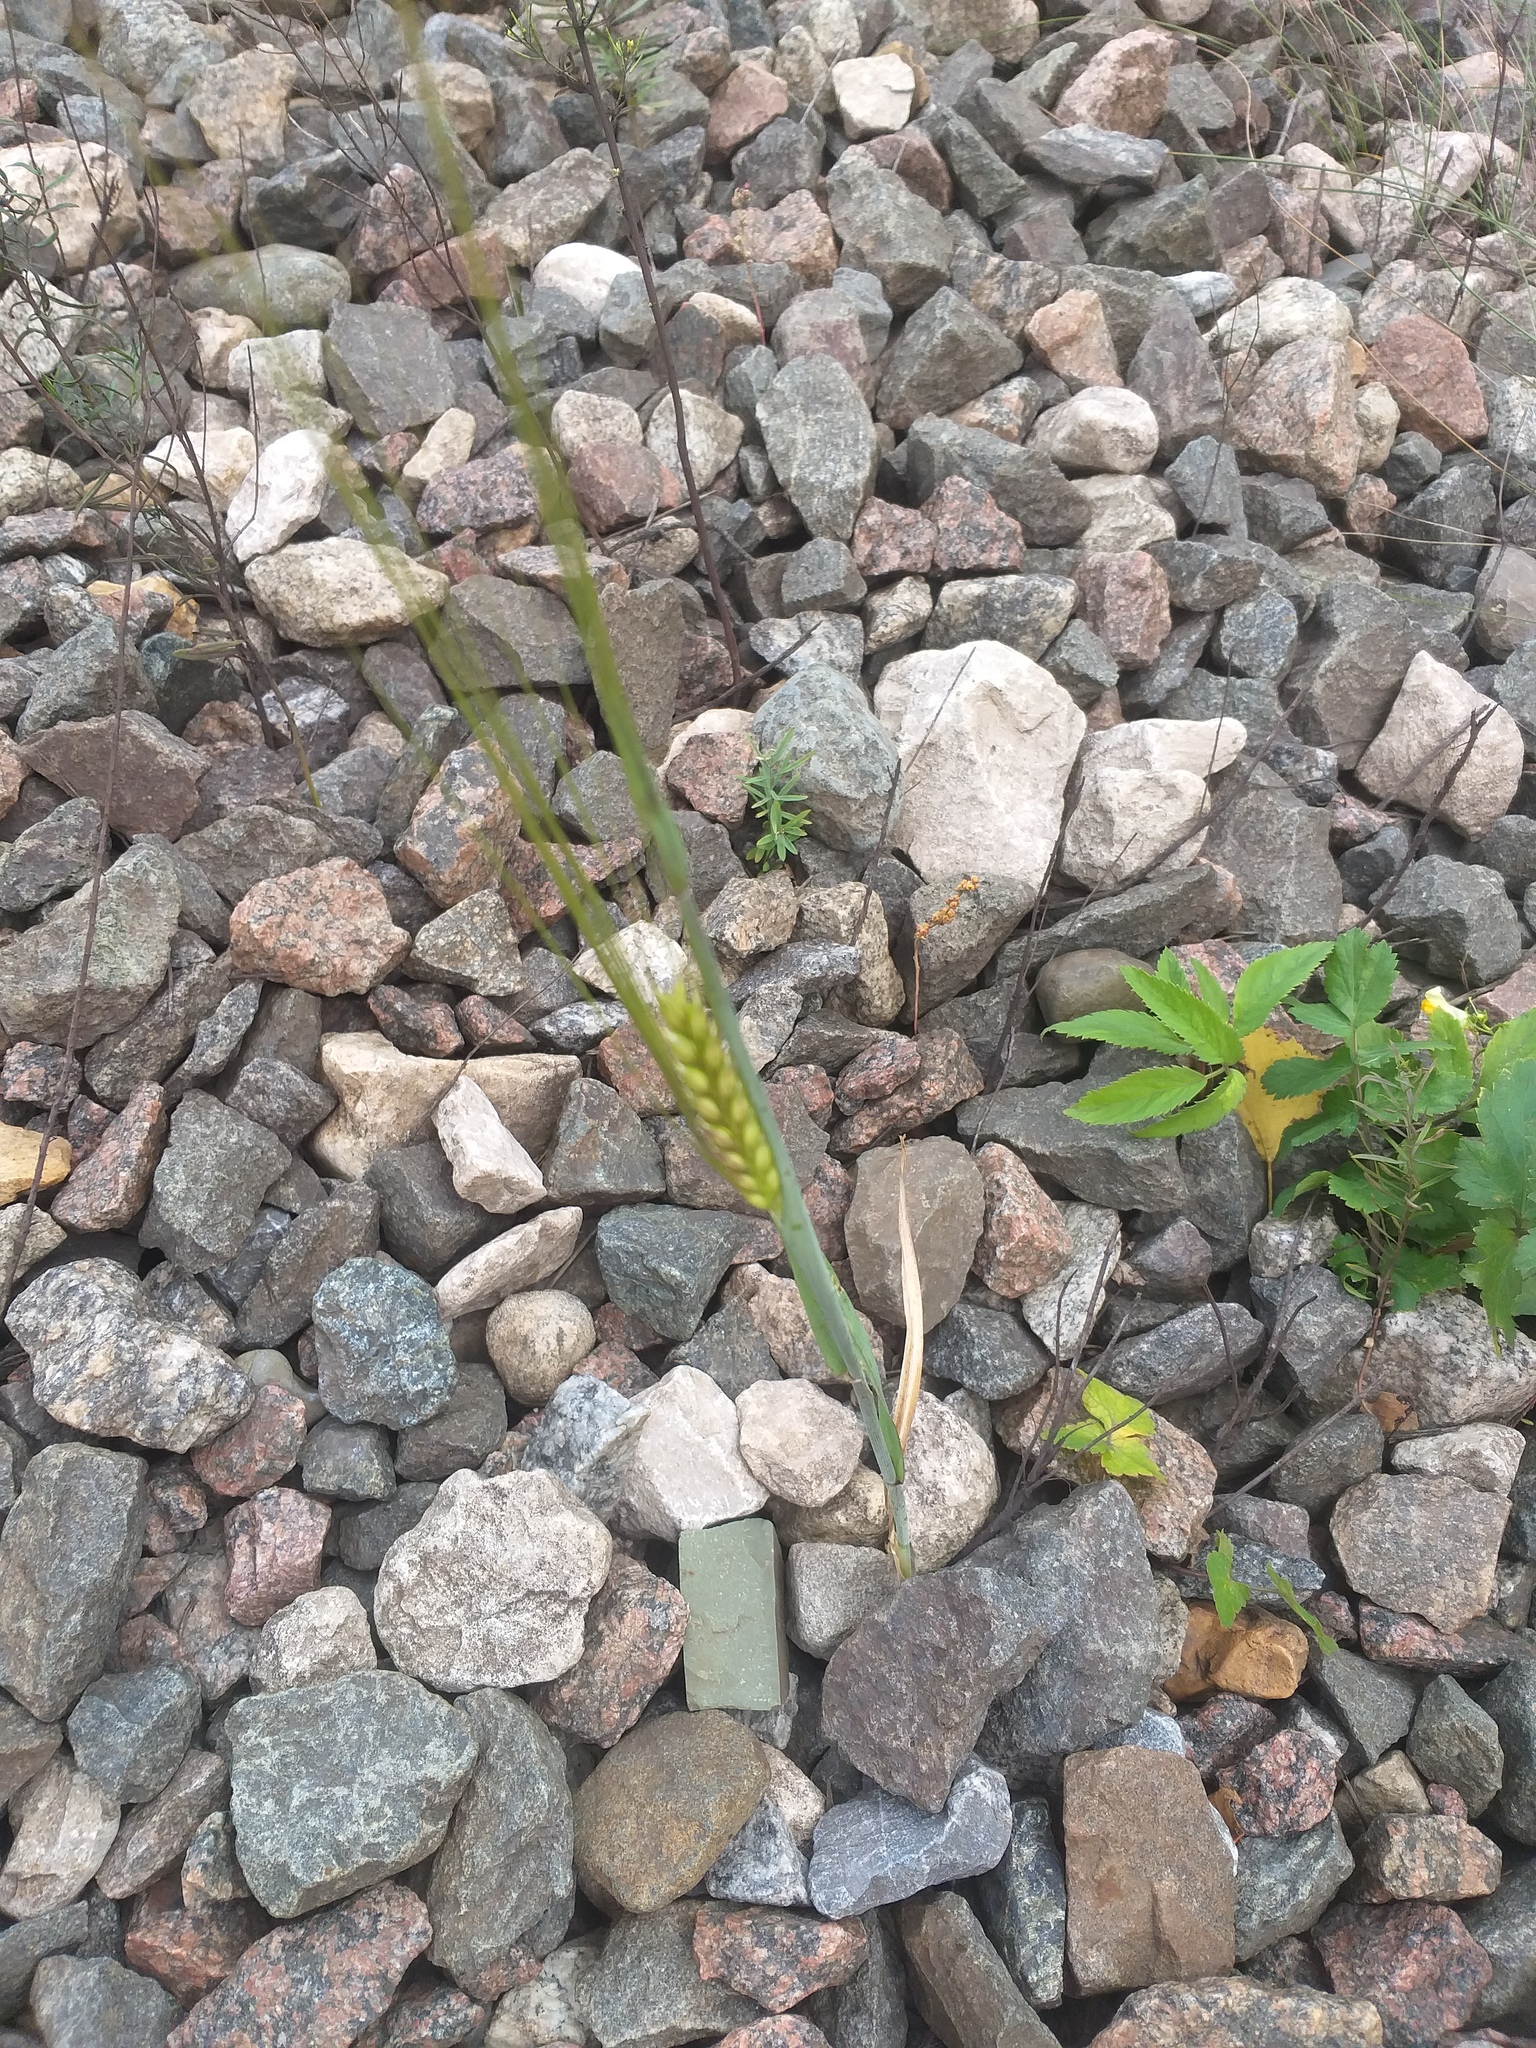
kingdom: Plantae
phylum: Tracheophyta
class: Liliopsida
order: Poales
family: Poaceae
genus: Hordeum
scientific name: Hordeum vulgare
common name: Common barley
